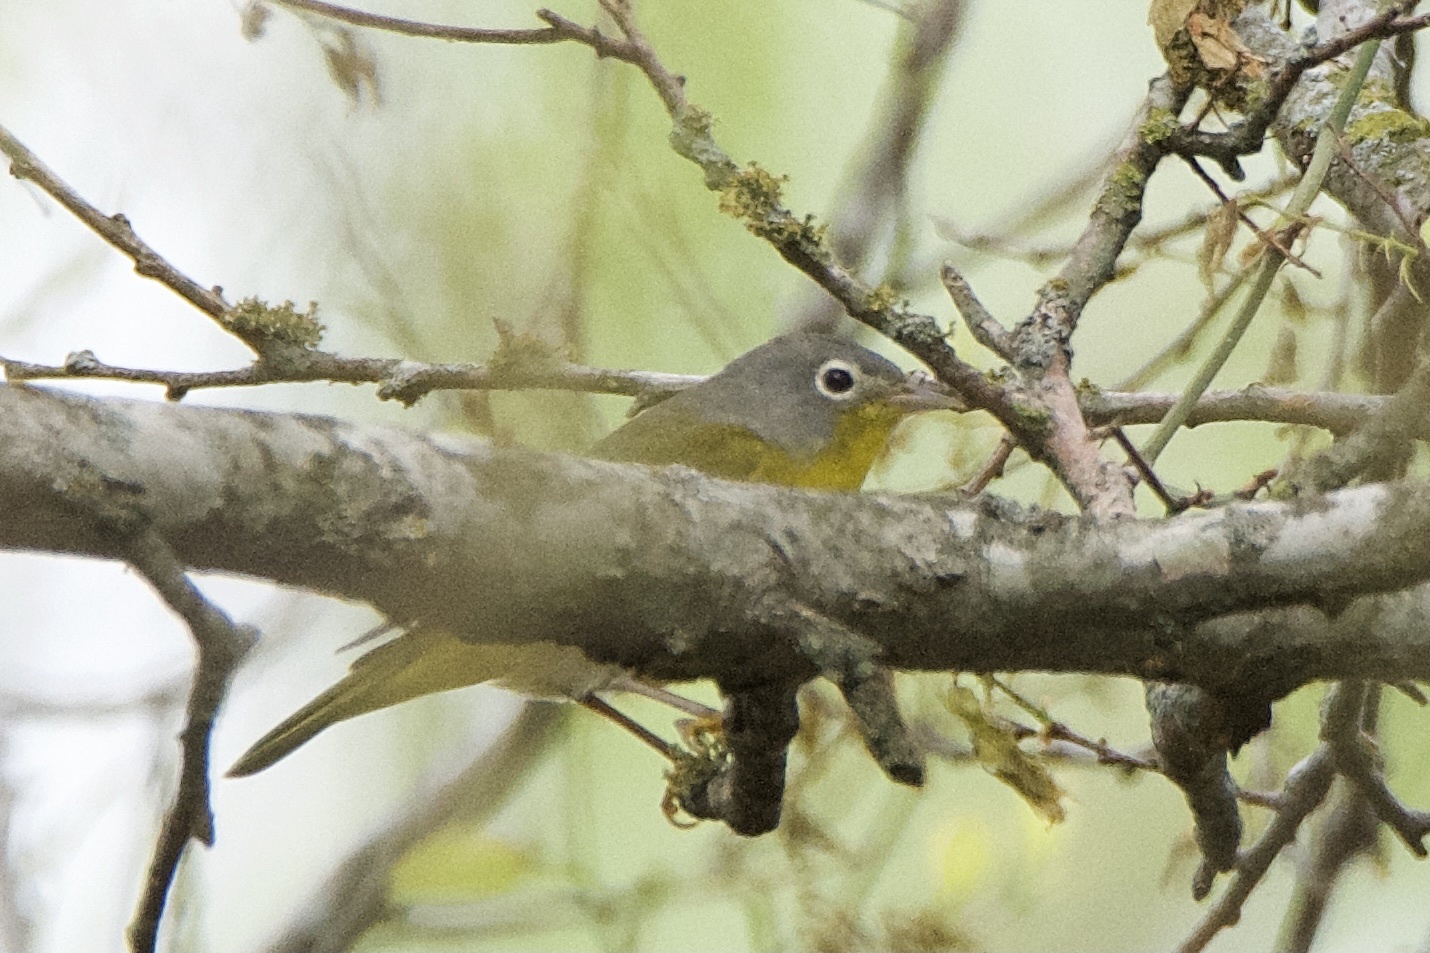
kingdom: Animalia
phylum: Chordata
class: Aves
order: Passeriformes
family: Parulidae
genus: Leiothlypis
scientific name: Leiothlypis ruficapilla
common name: Nashville warbler
